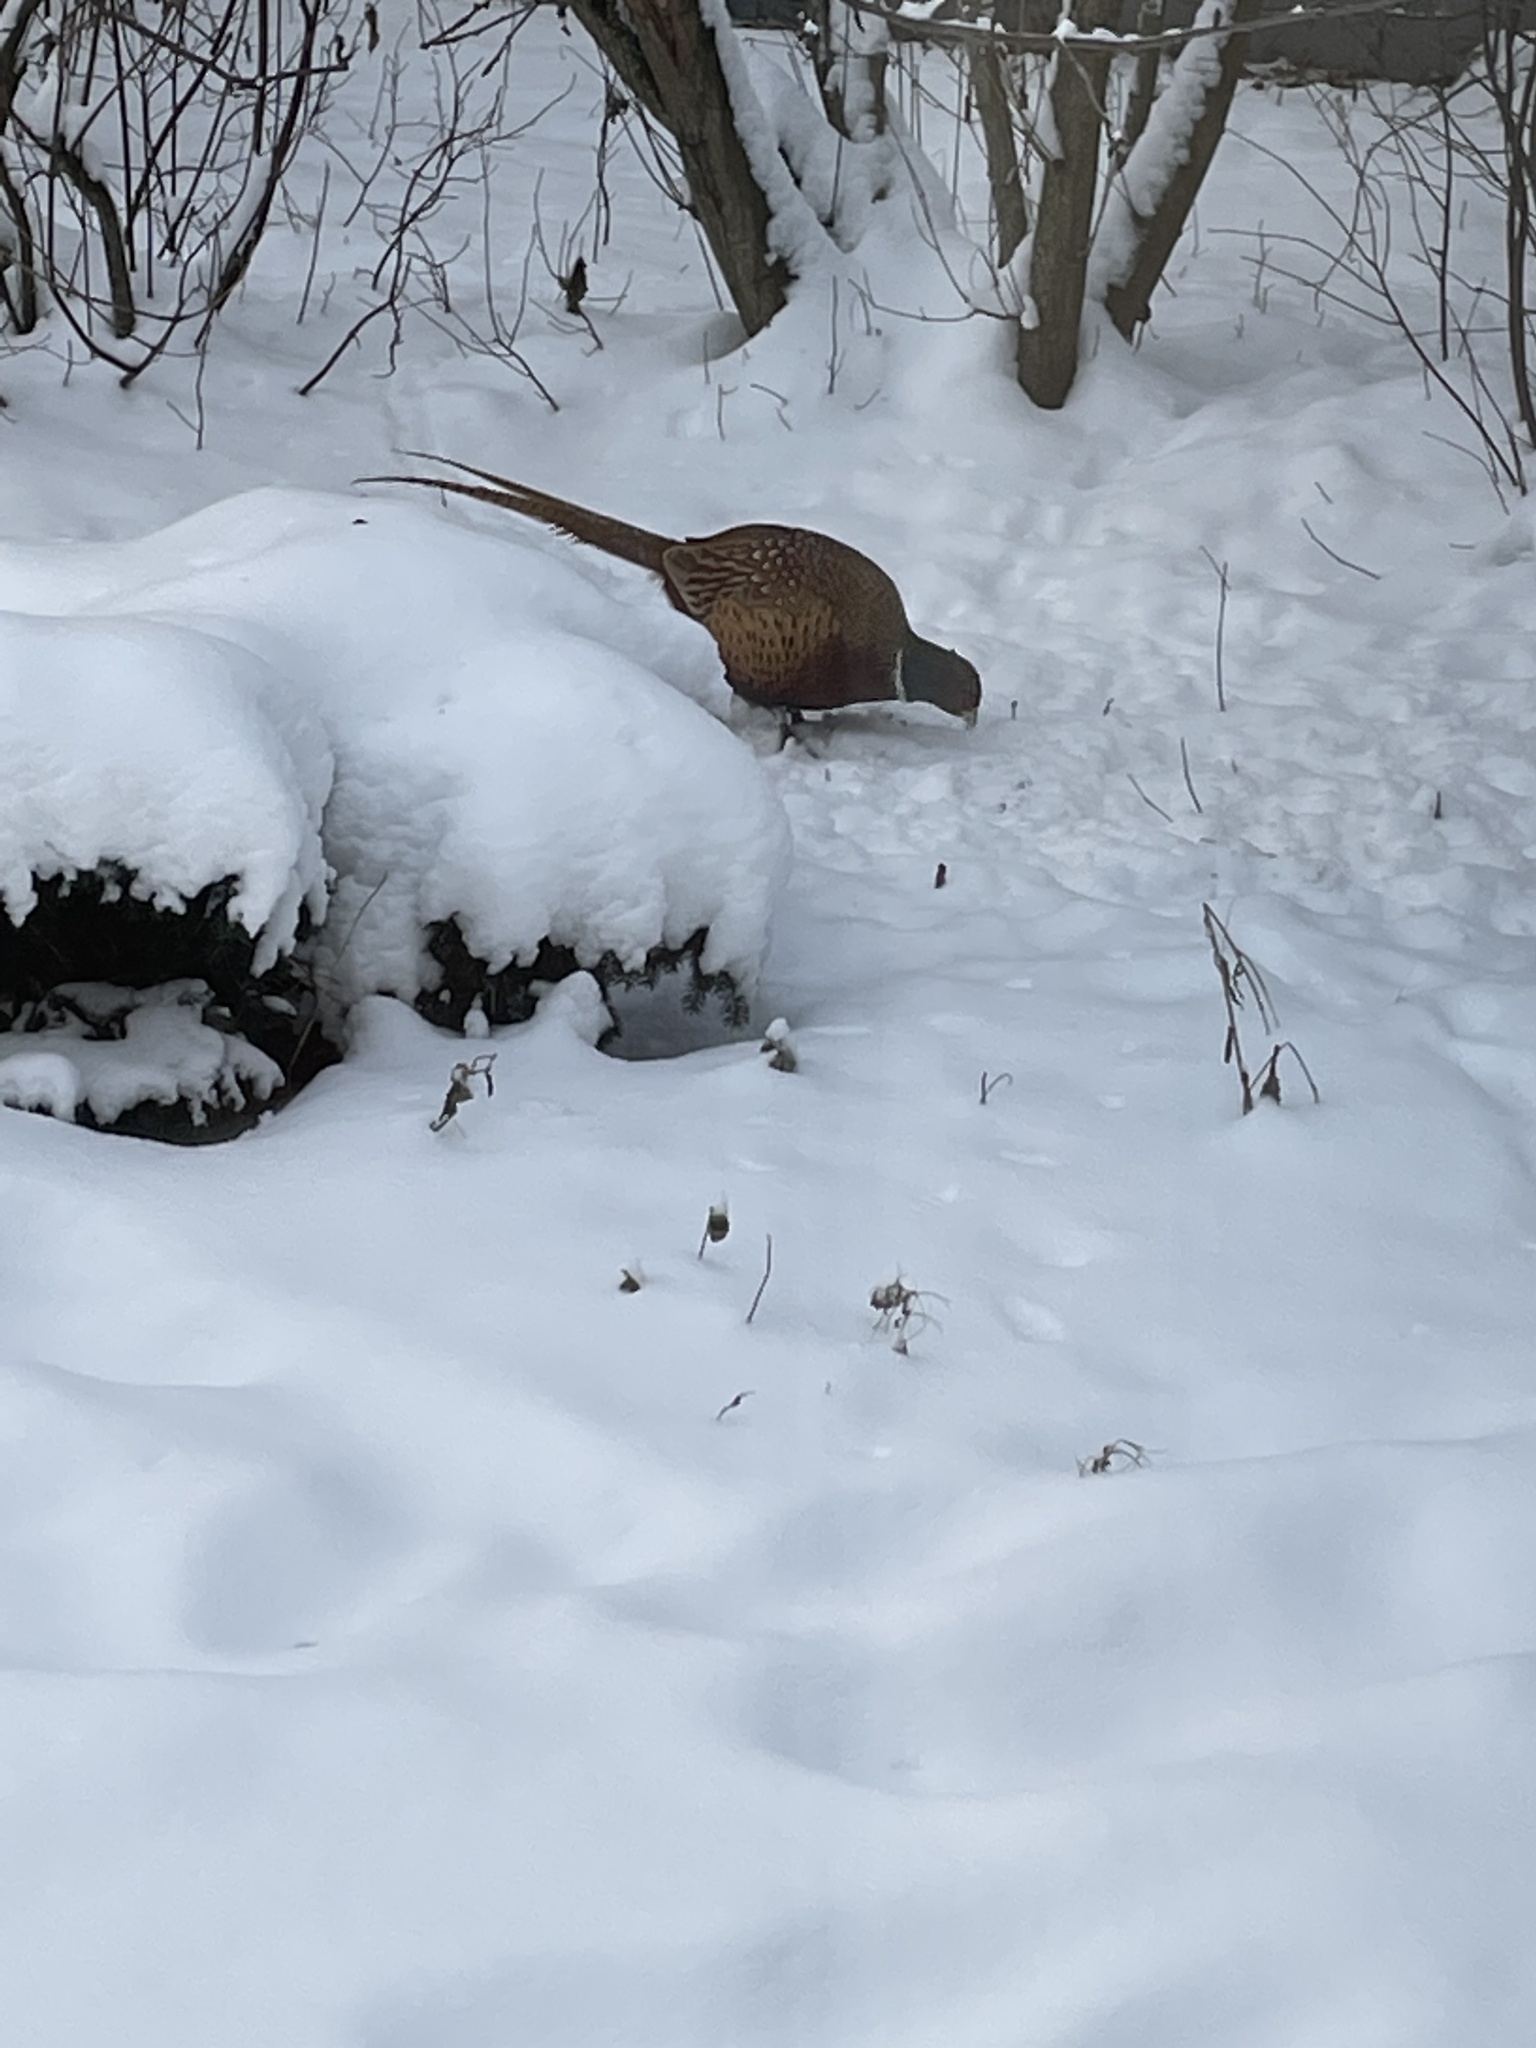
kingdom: Animalia
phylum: Chordata
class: Aves
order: Galliformes
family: Phasianidae
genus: Phasianus
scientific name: Phasianus colchicus
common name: Common pheasant
